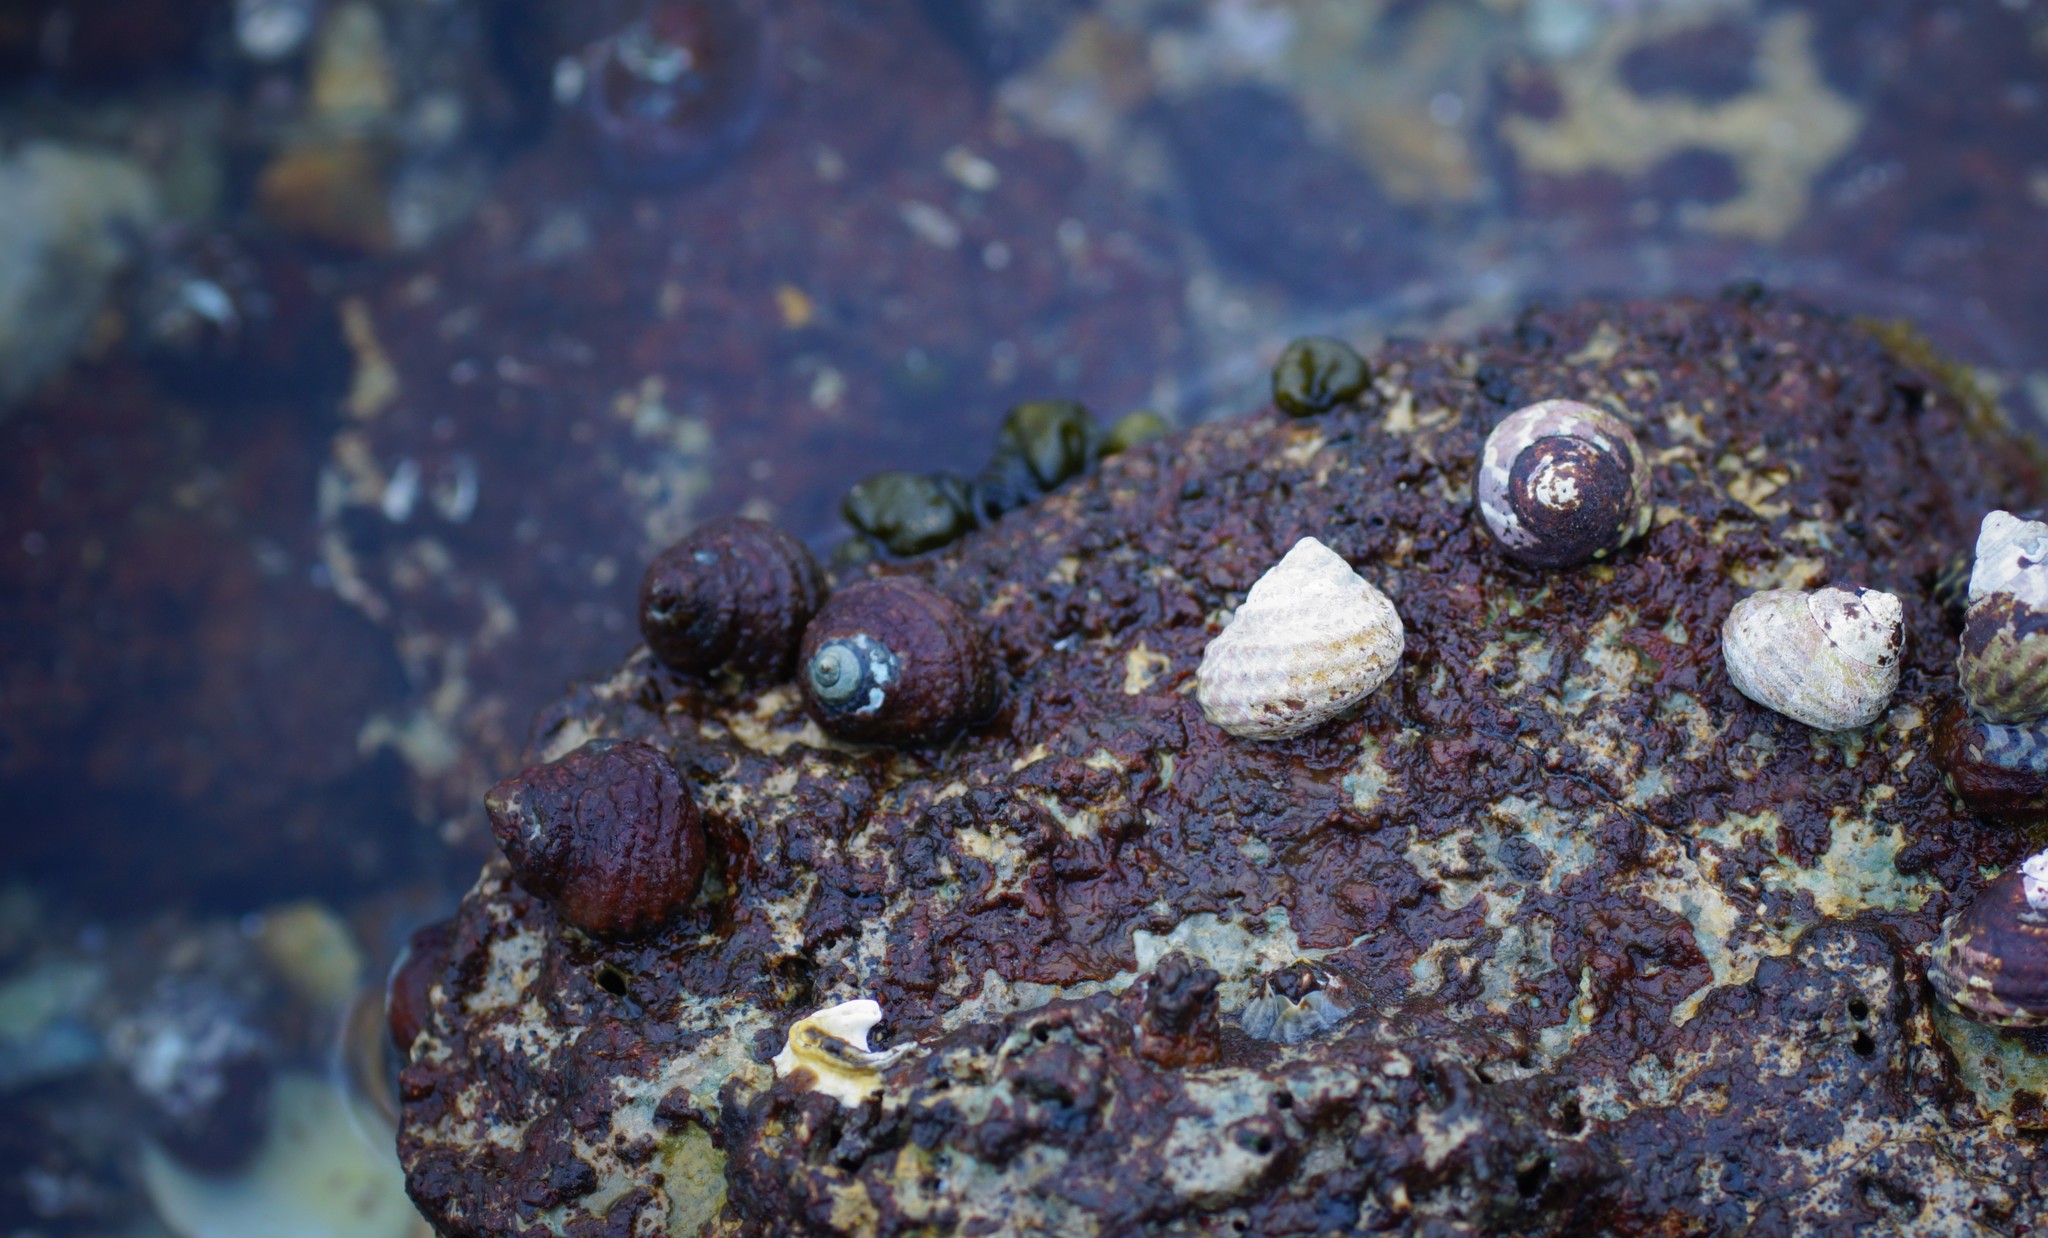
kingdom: Animalia
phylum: Mollusca
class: Gastropoda
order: Trochida
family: Trochidae
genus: Austrocochlea
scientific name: Austrocochlea constricta
